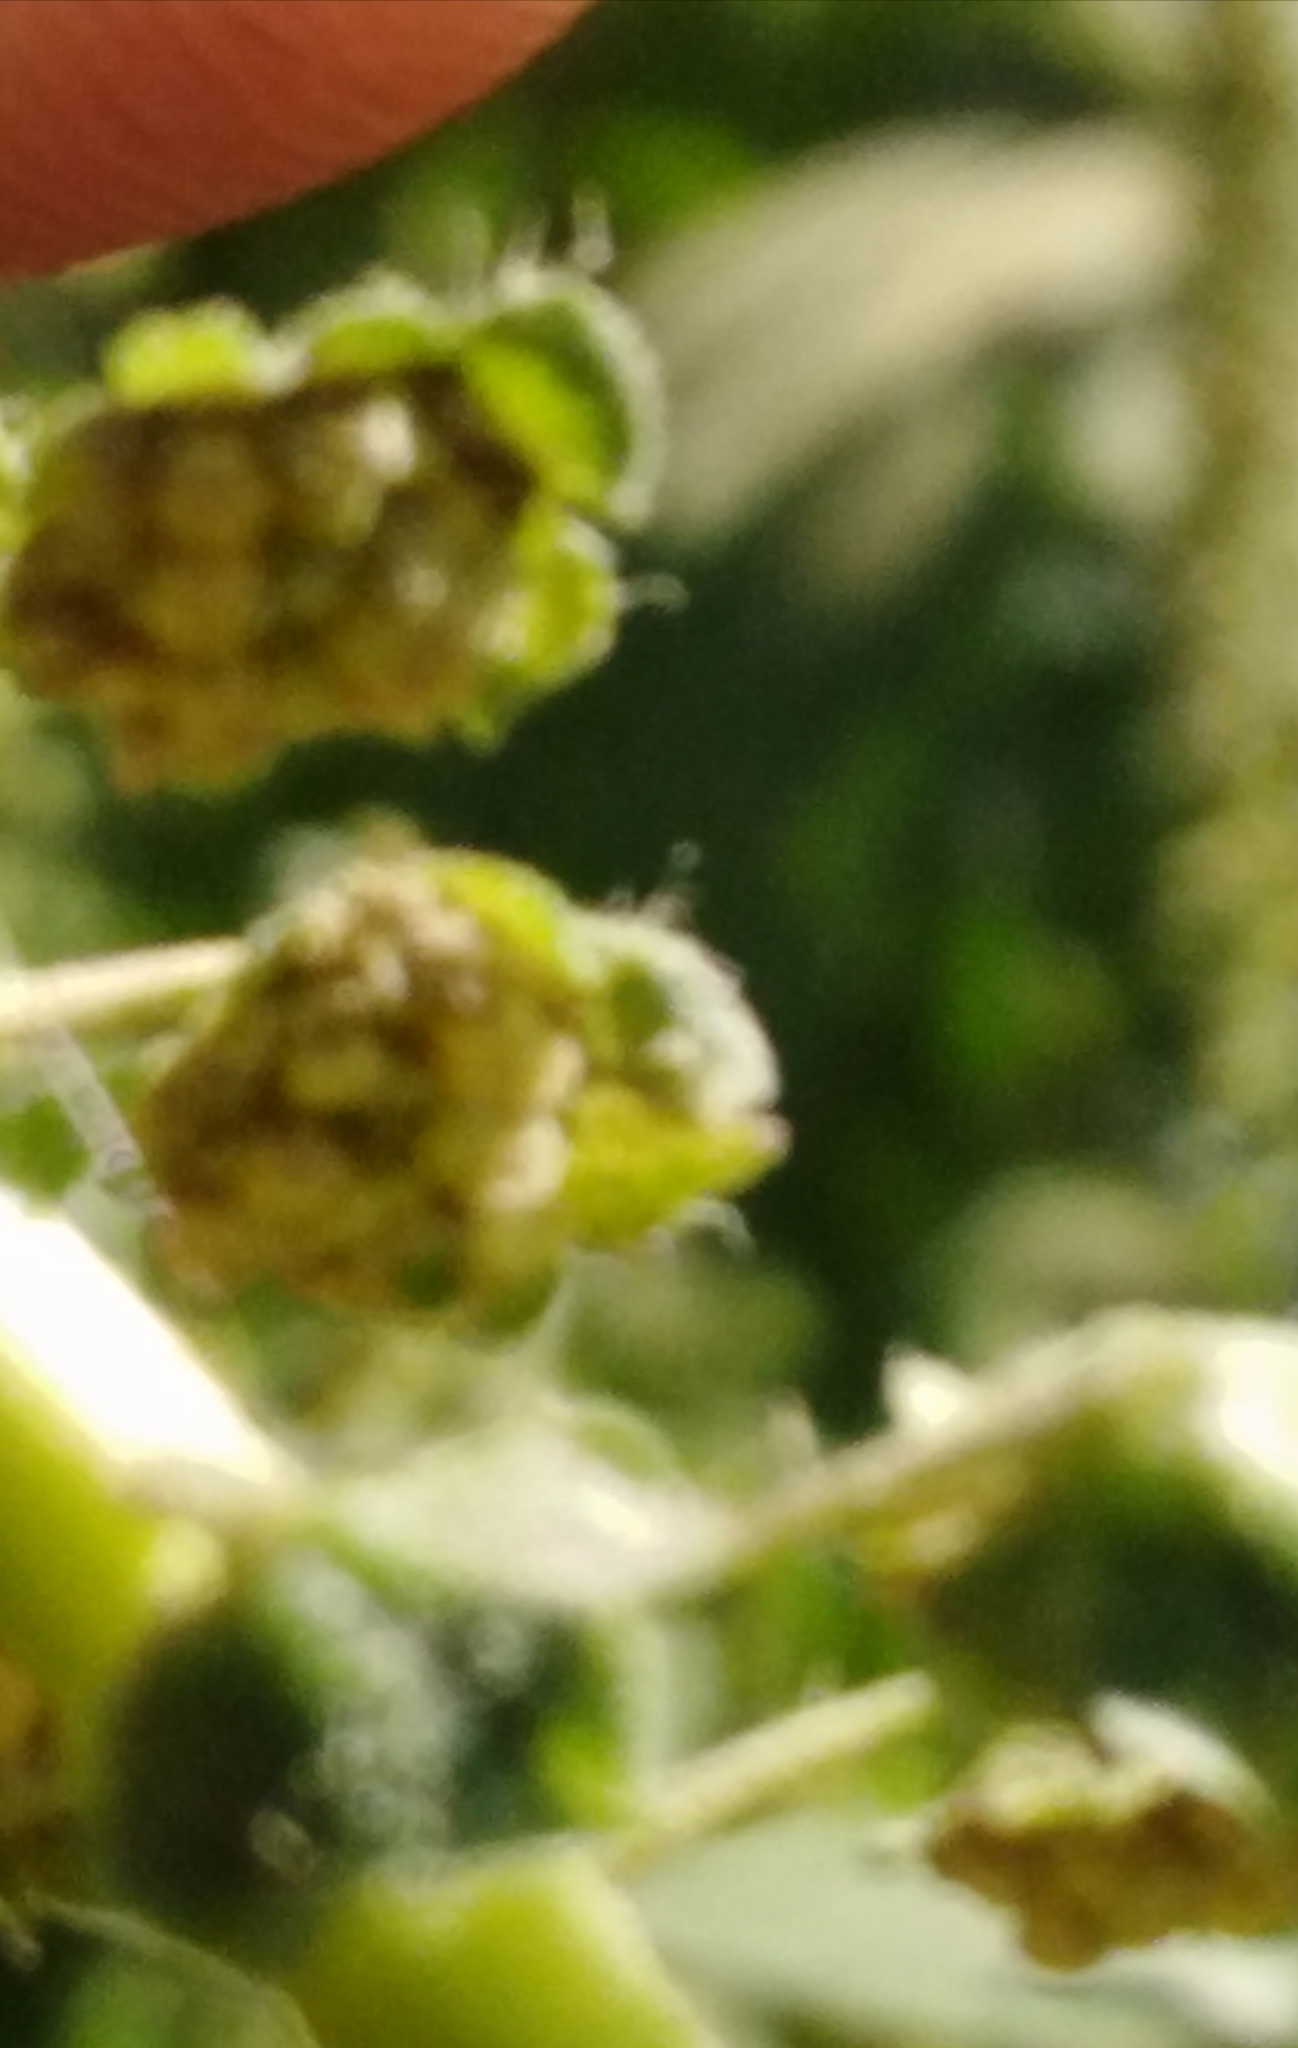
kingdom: Plantae
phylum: Tracheophyta
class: Magnoliopsida
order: Asterales
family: Asteraceae
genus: Ambrosia
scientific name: Ambrosia trifida
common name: Giant ragweed
